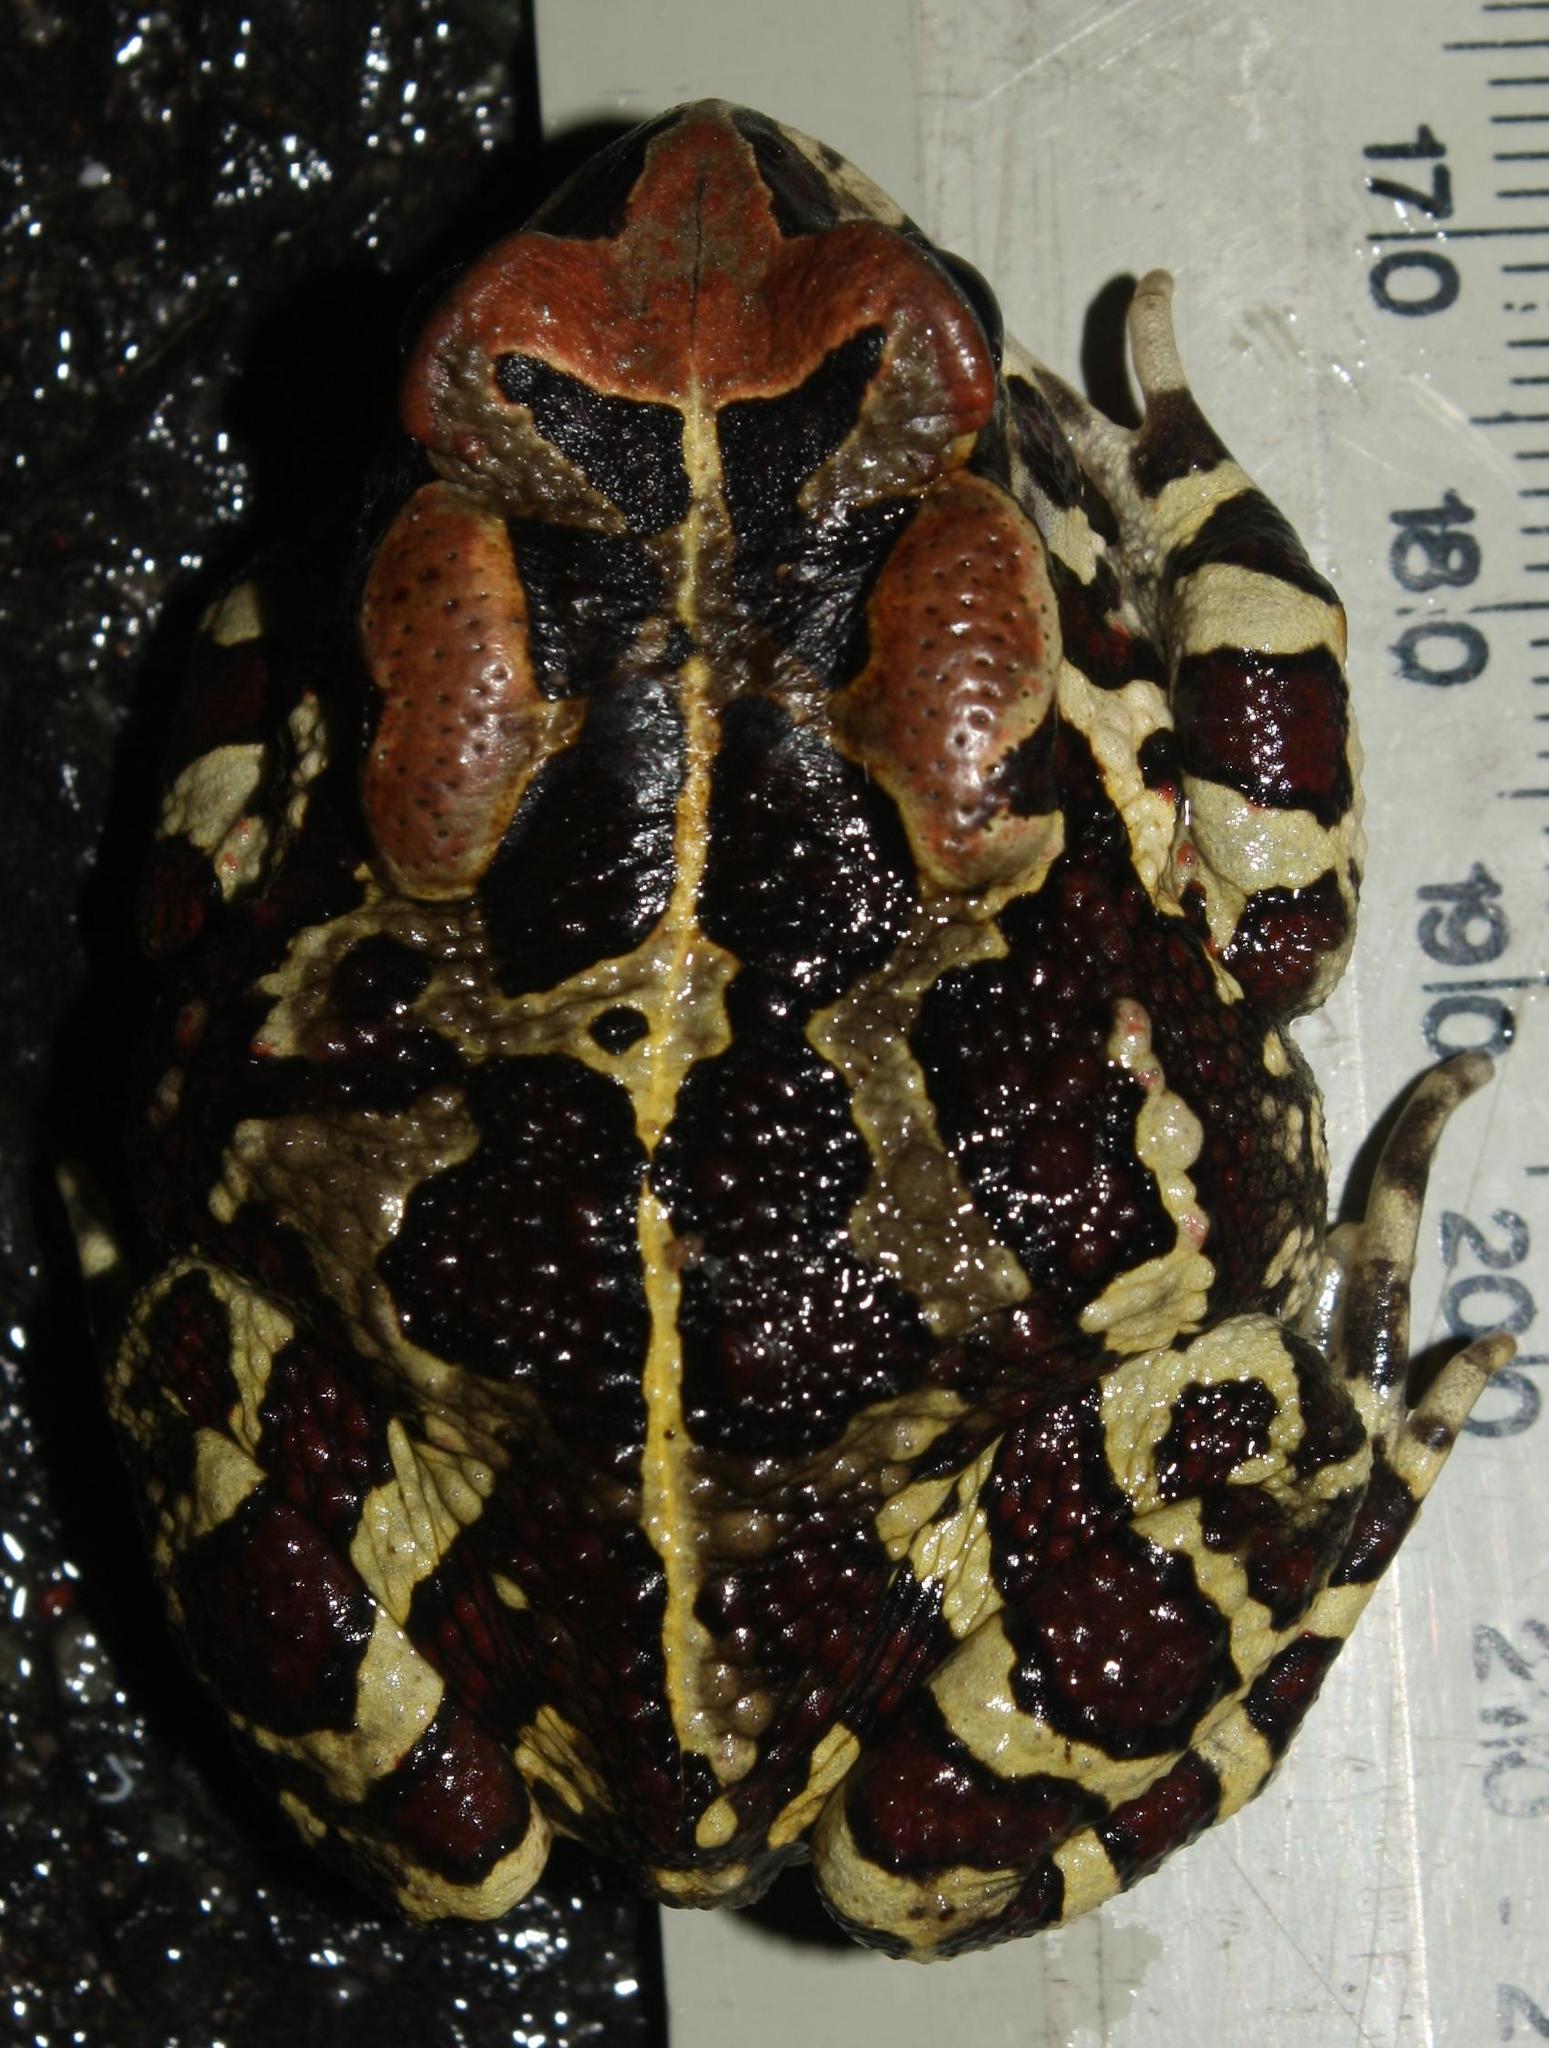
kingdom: Animalia
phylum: Chordata
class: Amphibia
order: Anura
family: Bufonidae
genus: Sclerophrys
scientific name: Sclerophrys pantherina
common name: Panther toad
